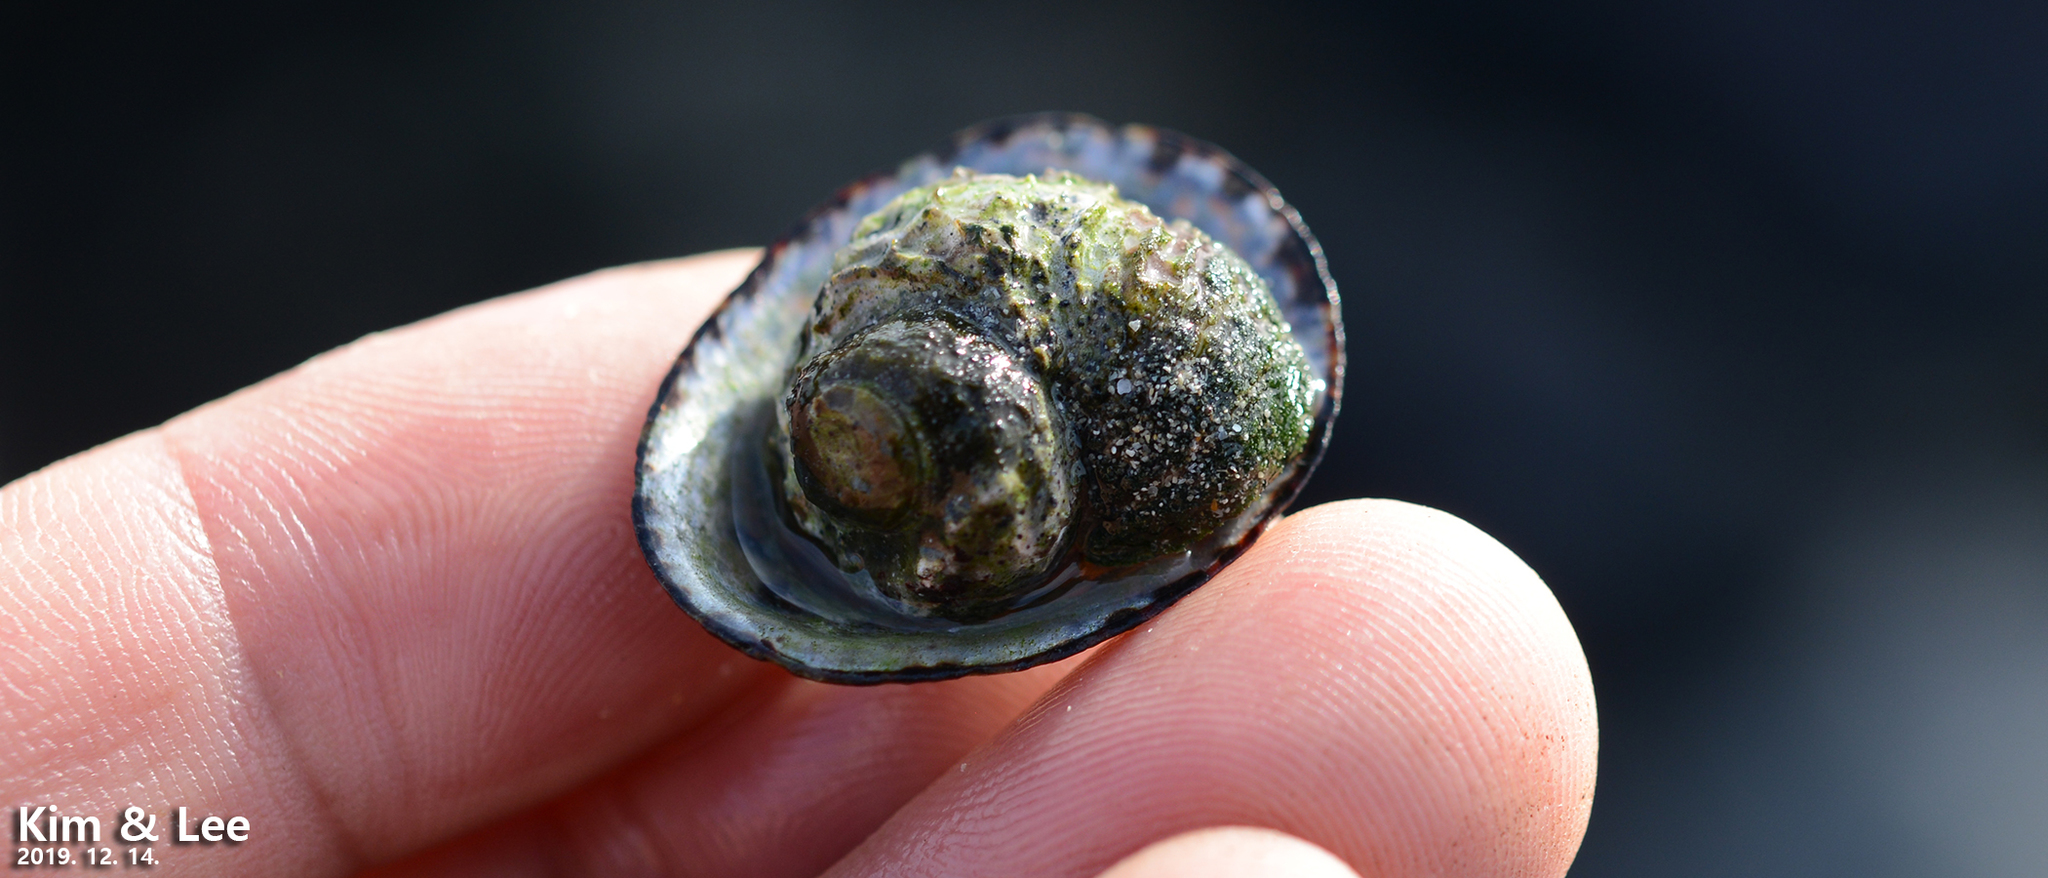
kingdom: Animalia
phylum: Mollusca
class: Gastropoda
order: Trochida
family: Turbinidae
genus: Lunella
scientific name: Lunella correensis
